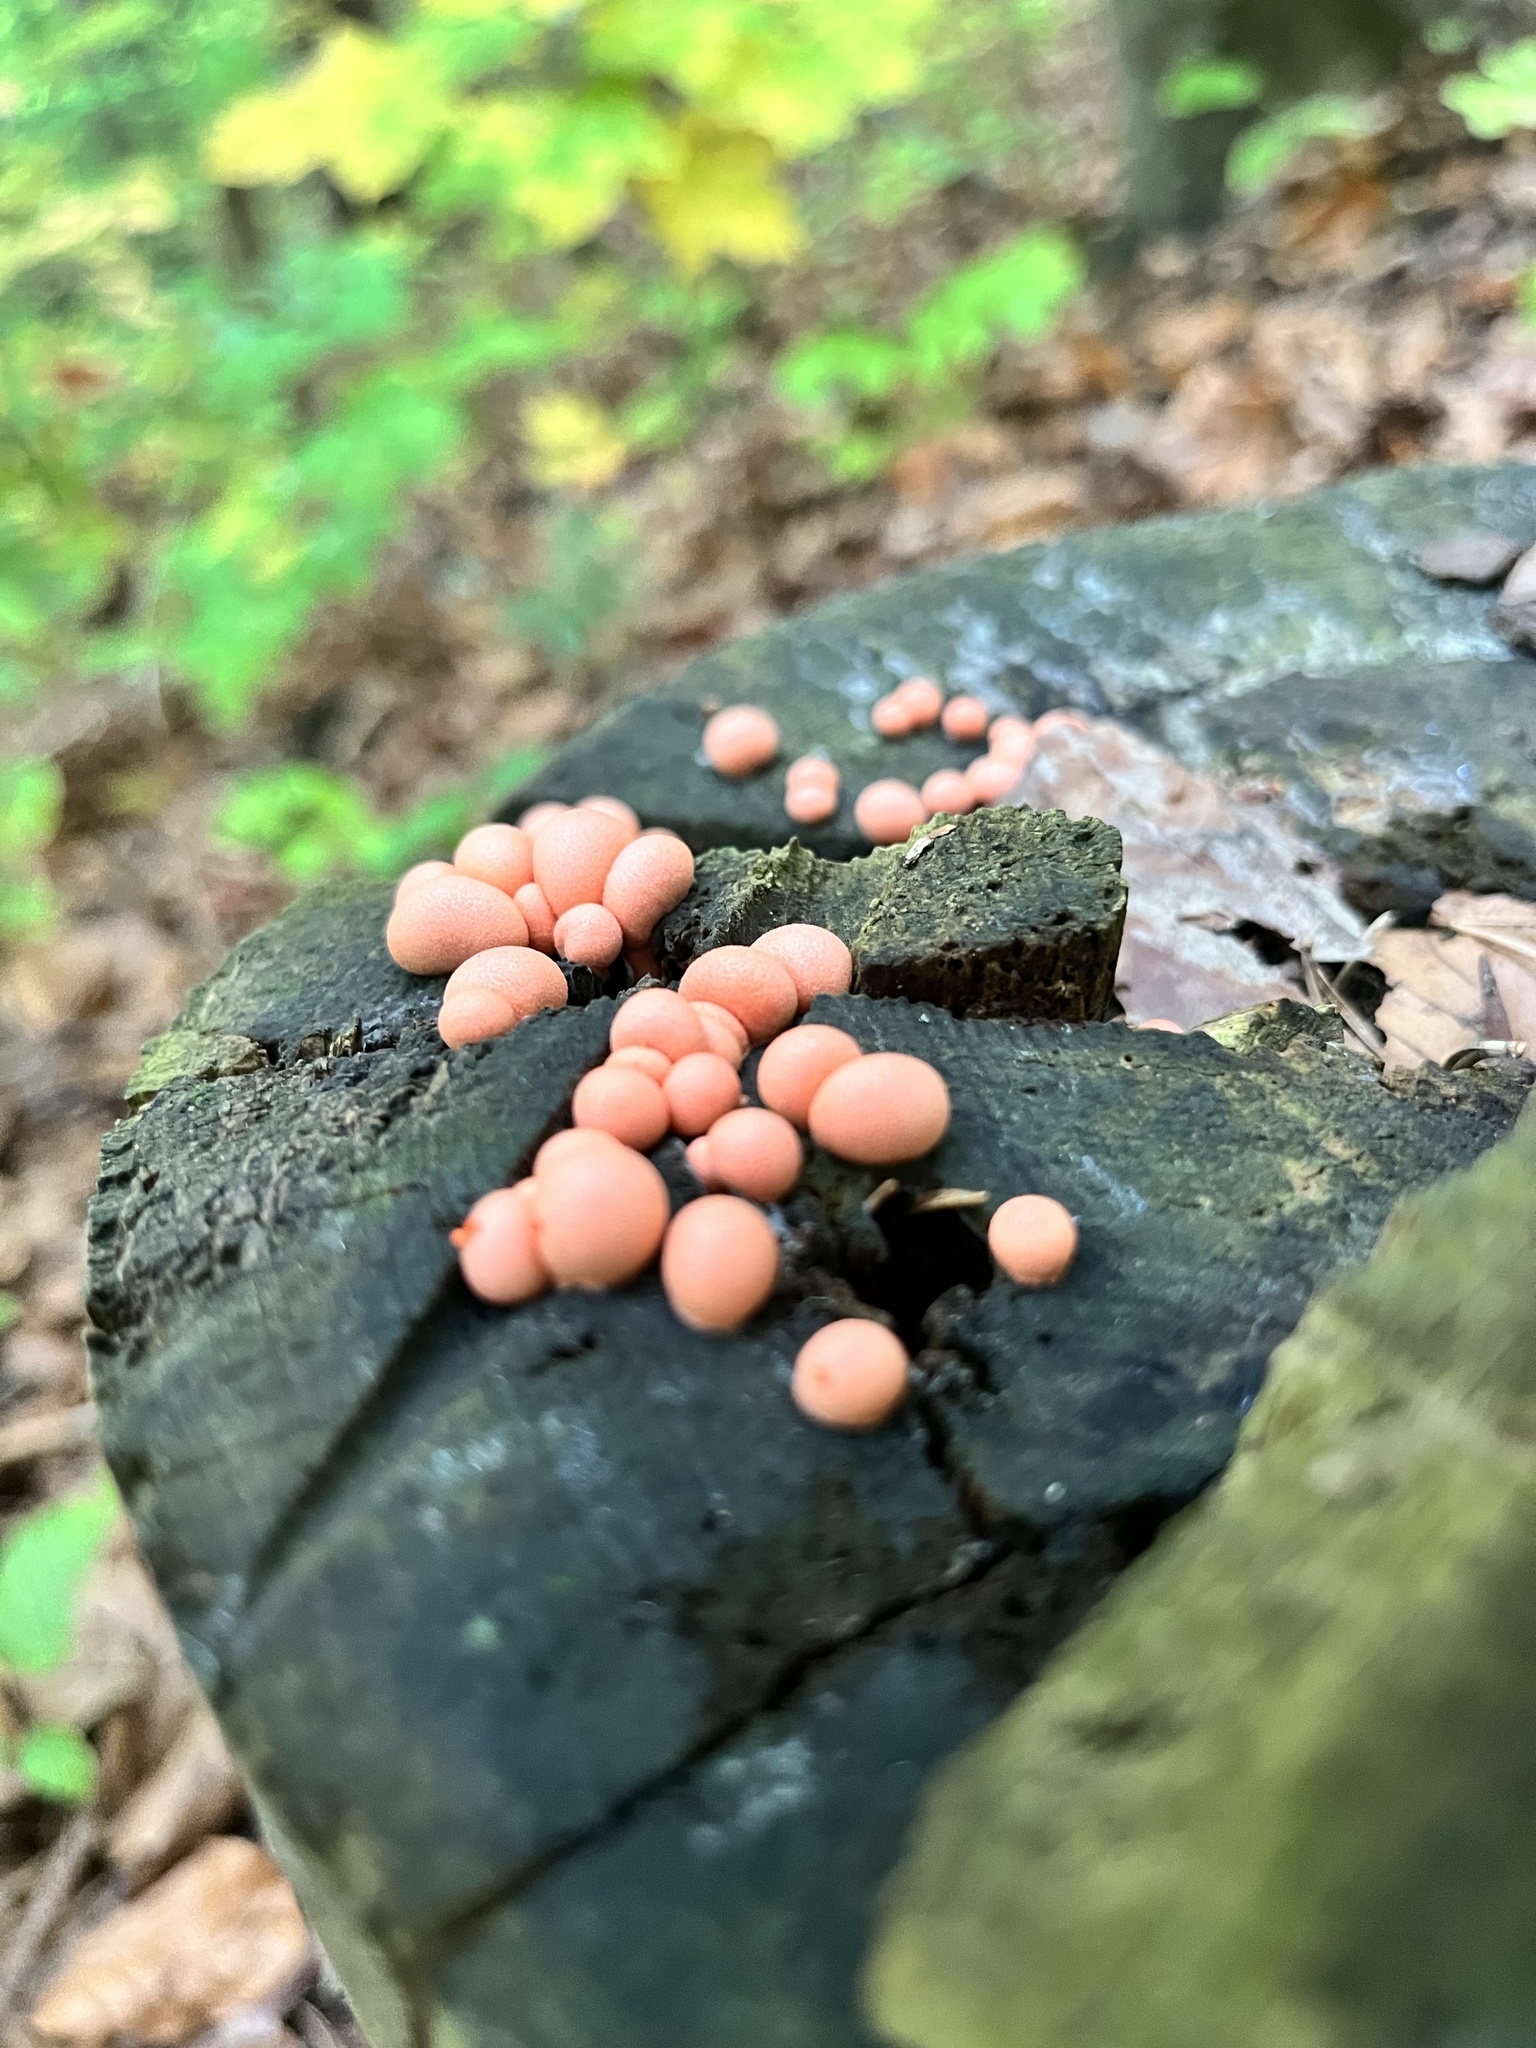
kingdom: Protozoa
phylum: Mycetozoa
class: Myxomycetes
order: Cribrariales
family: Tubiferaceae
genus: Lycogala
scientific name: Lycogala epidendrum
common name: Wolf's milk
